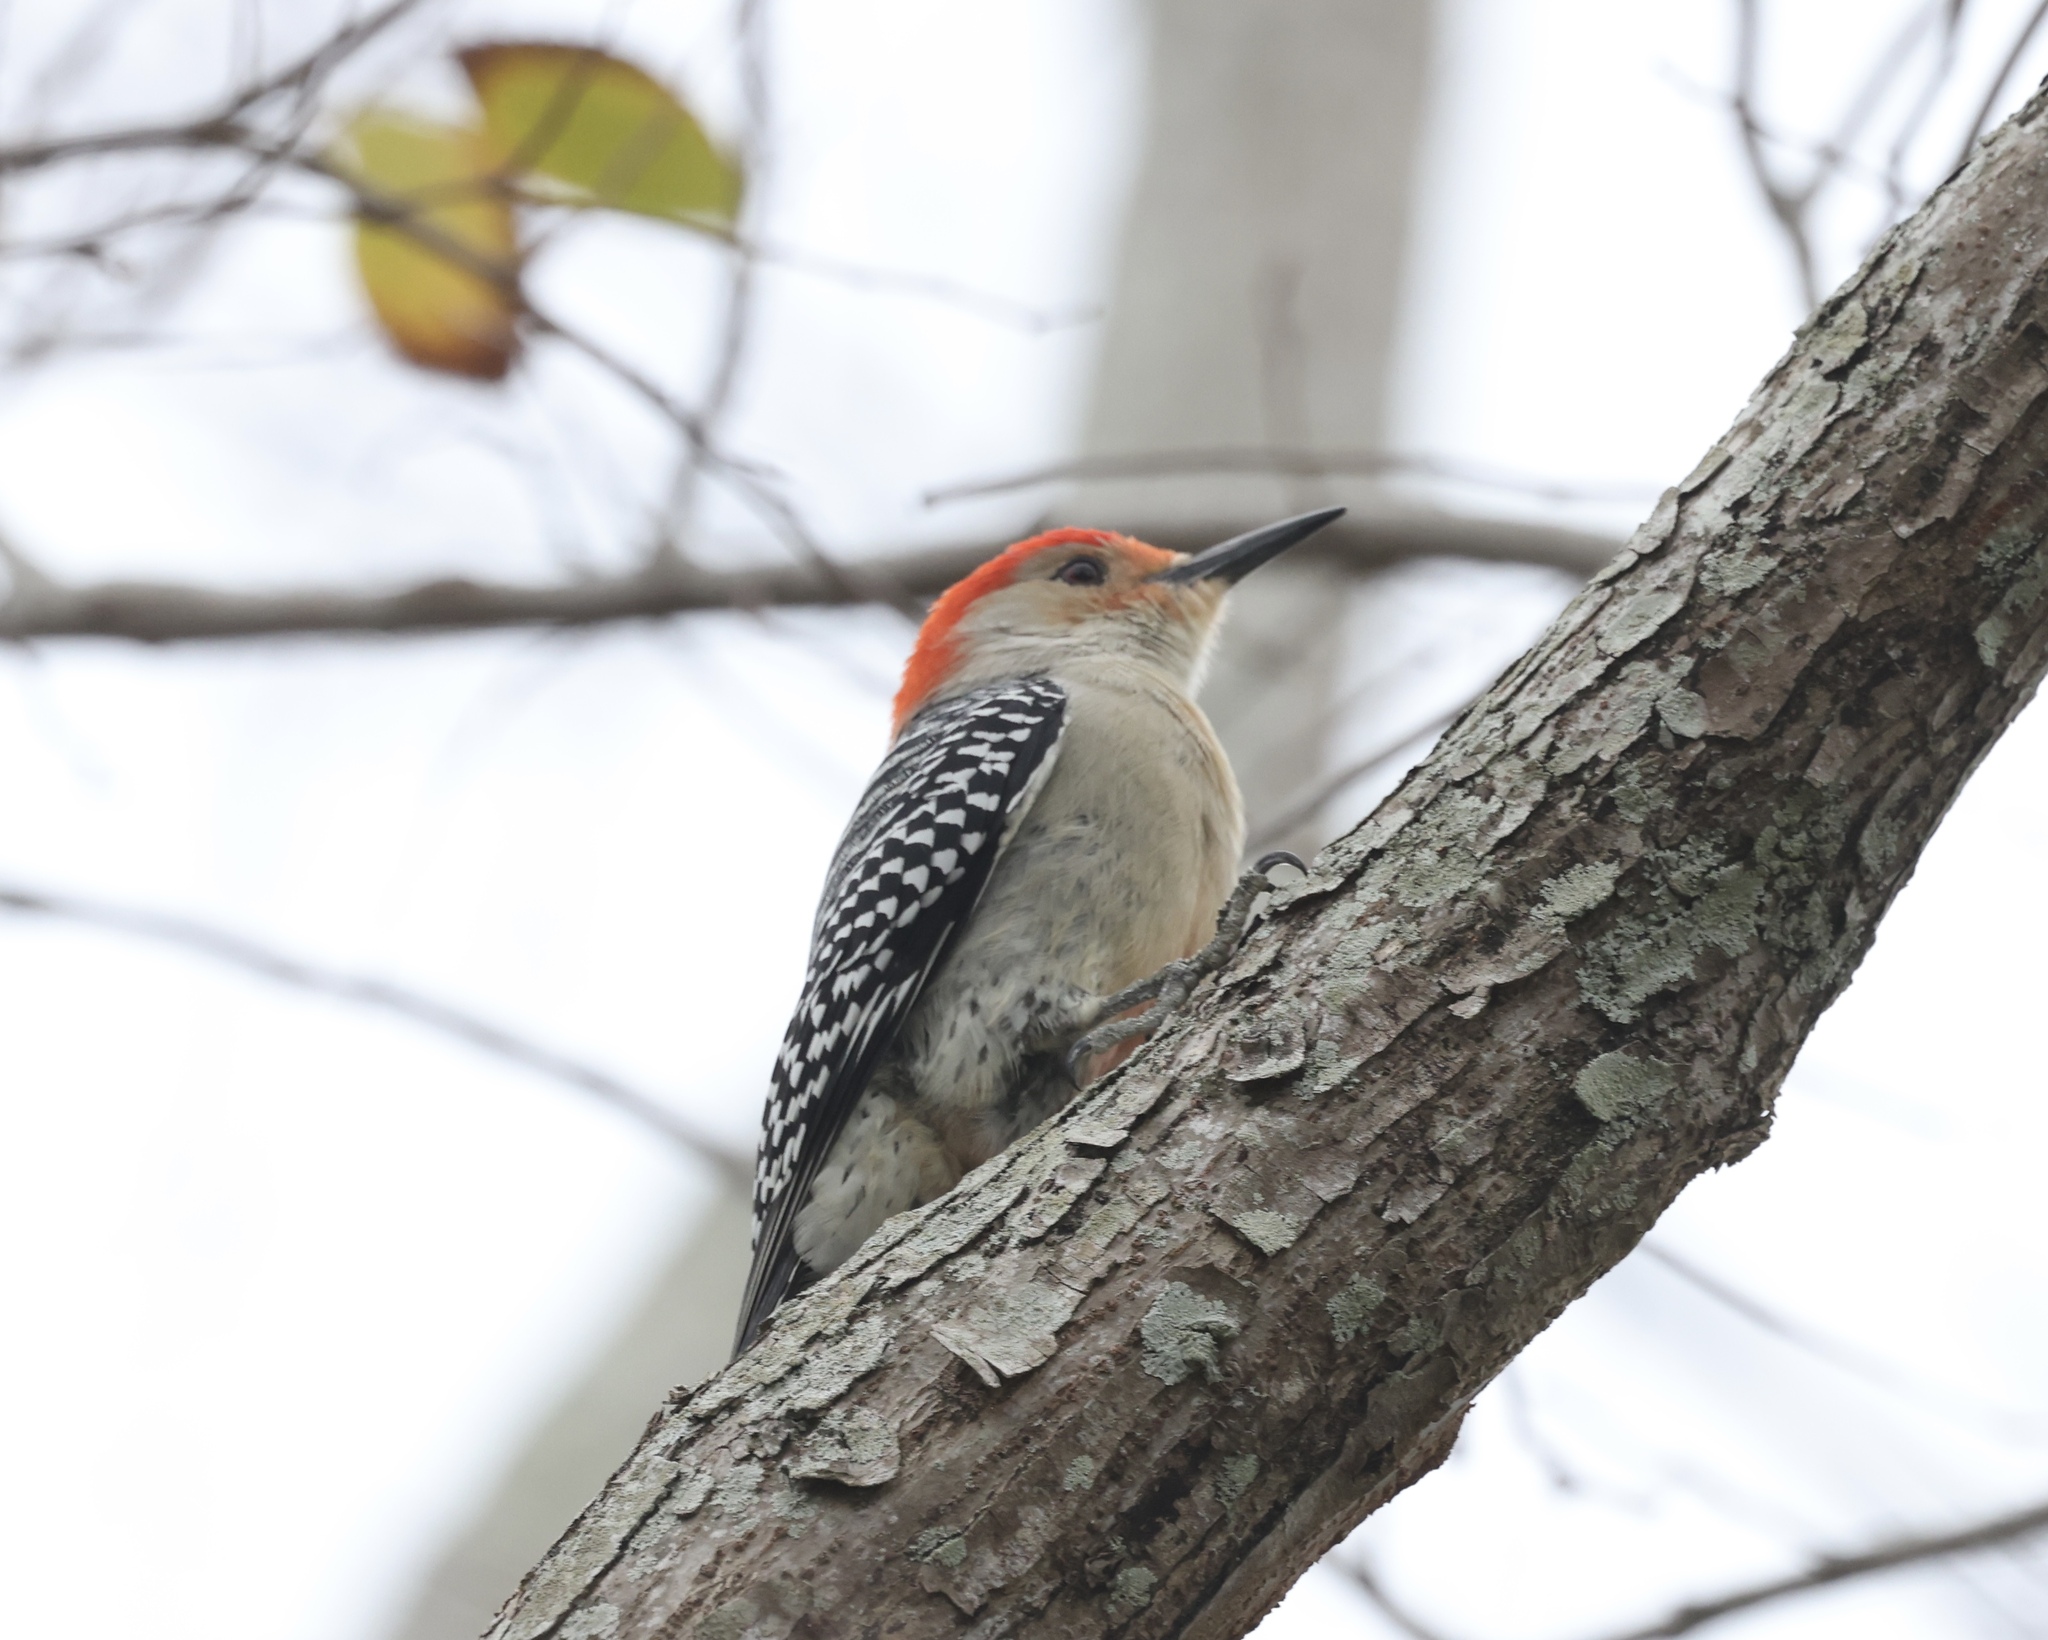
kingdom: Animalia
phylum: Chordata
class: Aves
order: Piciformes
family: Picidae
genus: Melanerpes
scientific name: Melanerpes carolinus
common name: Red-bellied woodpecker
